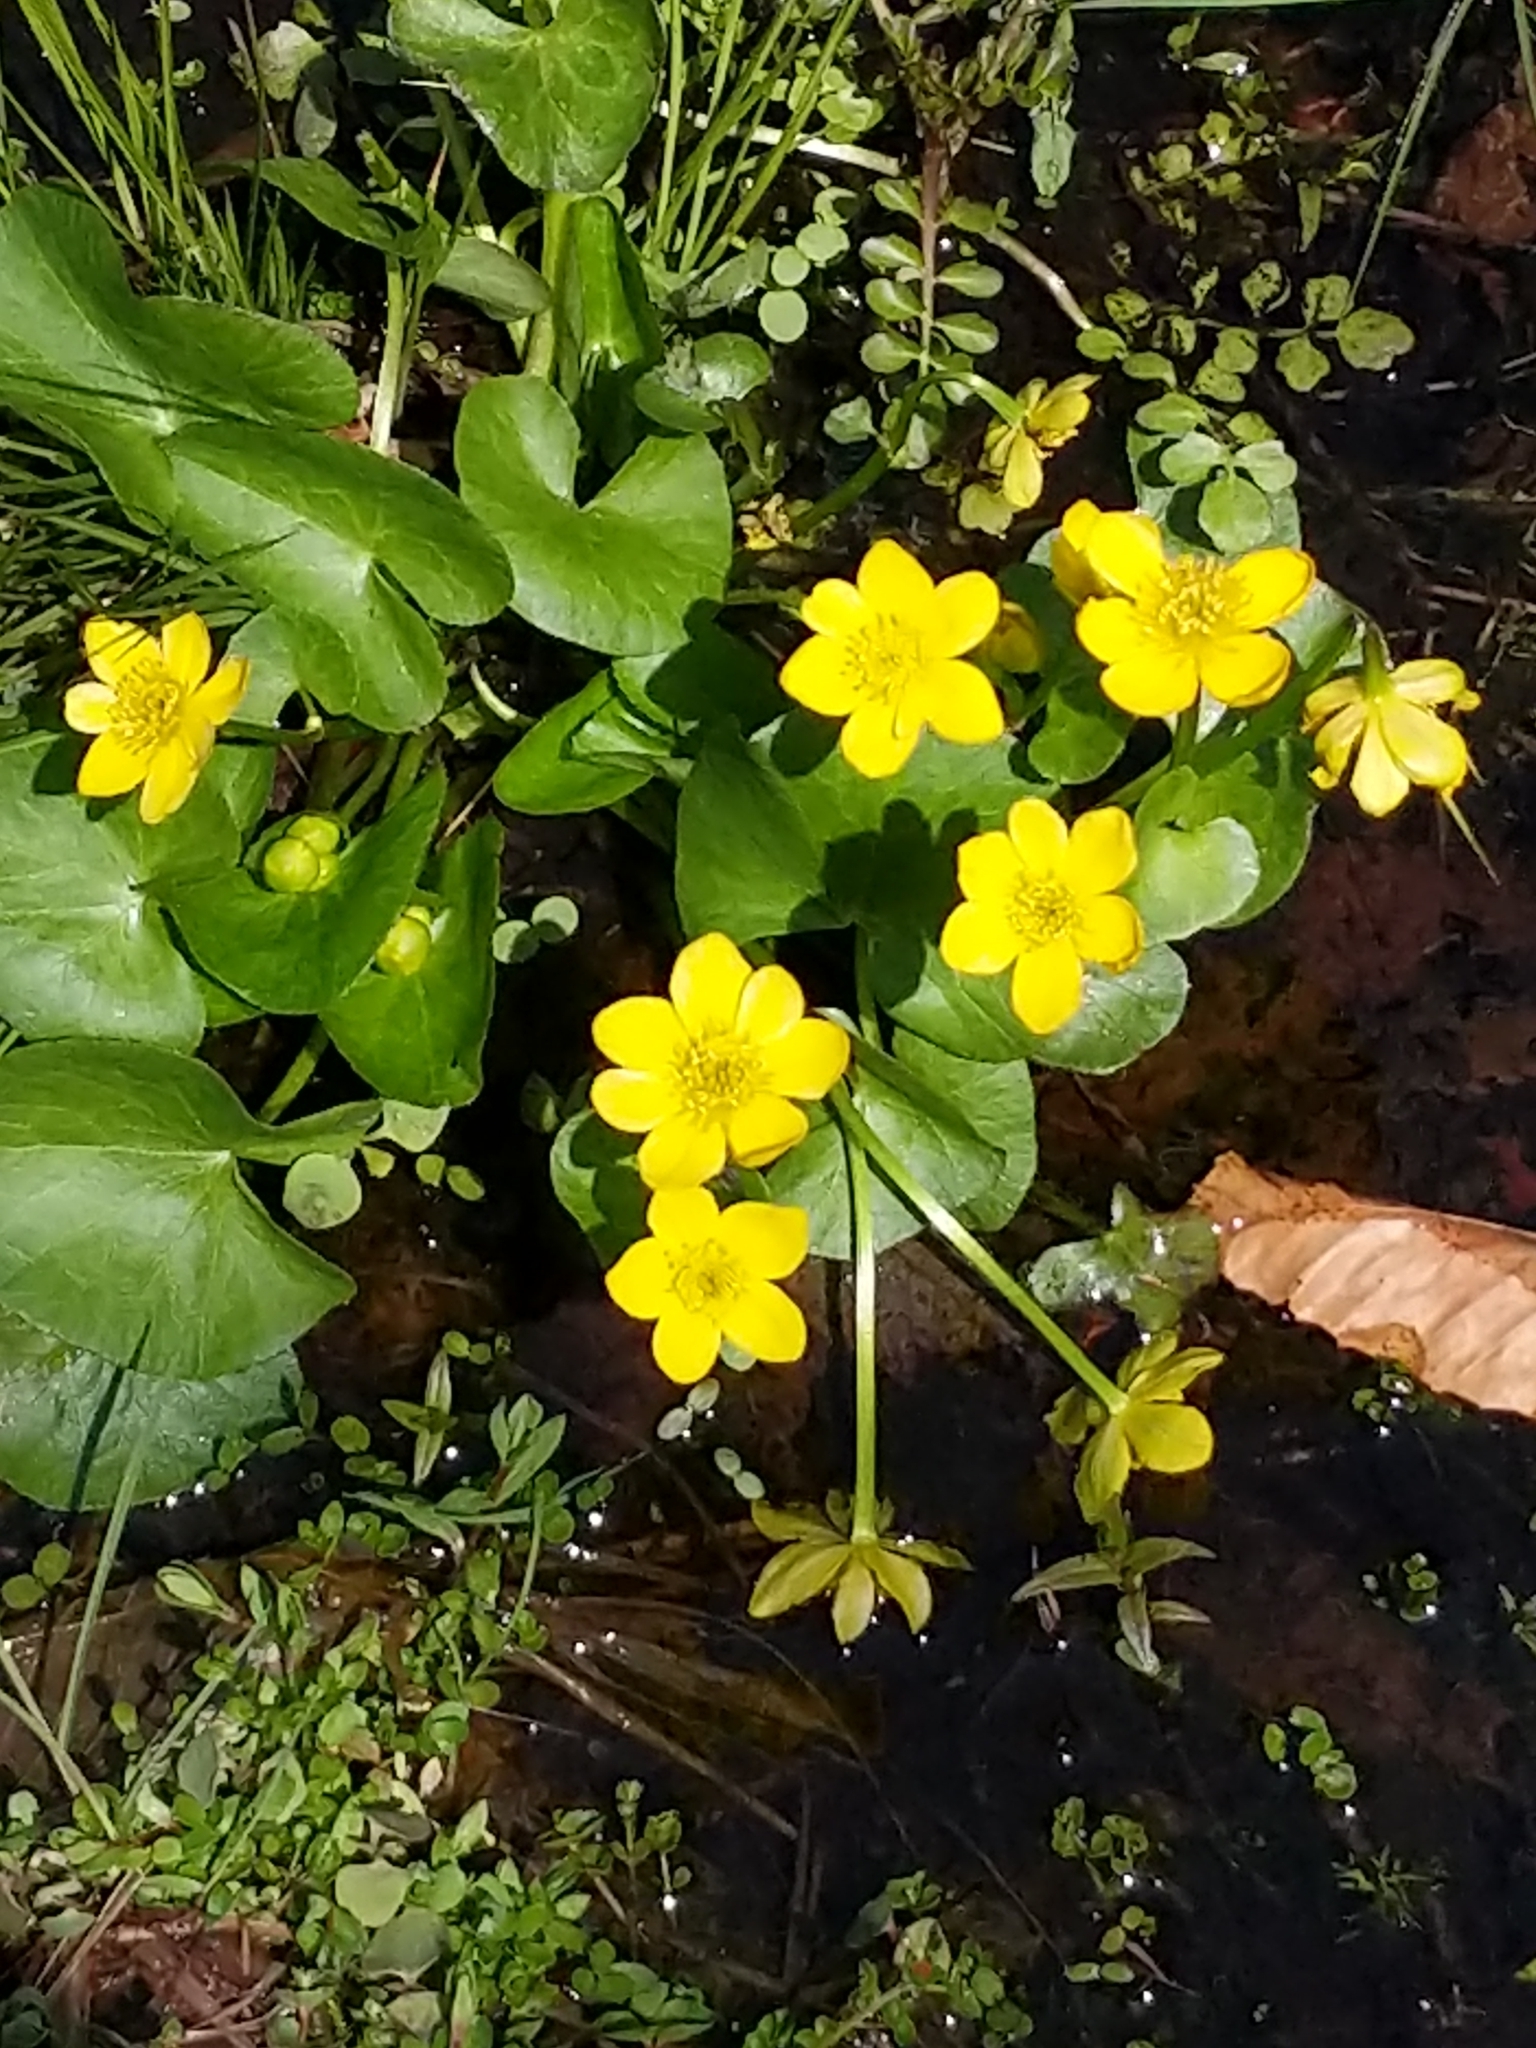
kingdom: Plantae
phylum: Tracheophyta
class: Magnoliopsida
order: Ranunculales
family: Ranunculaceae
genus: Caltha
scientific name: Caltha palustris
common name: Marsh marigold
